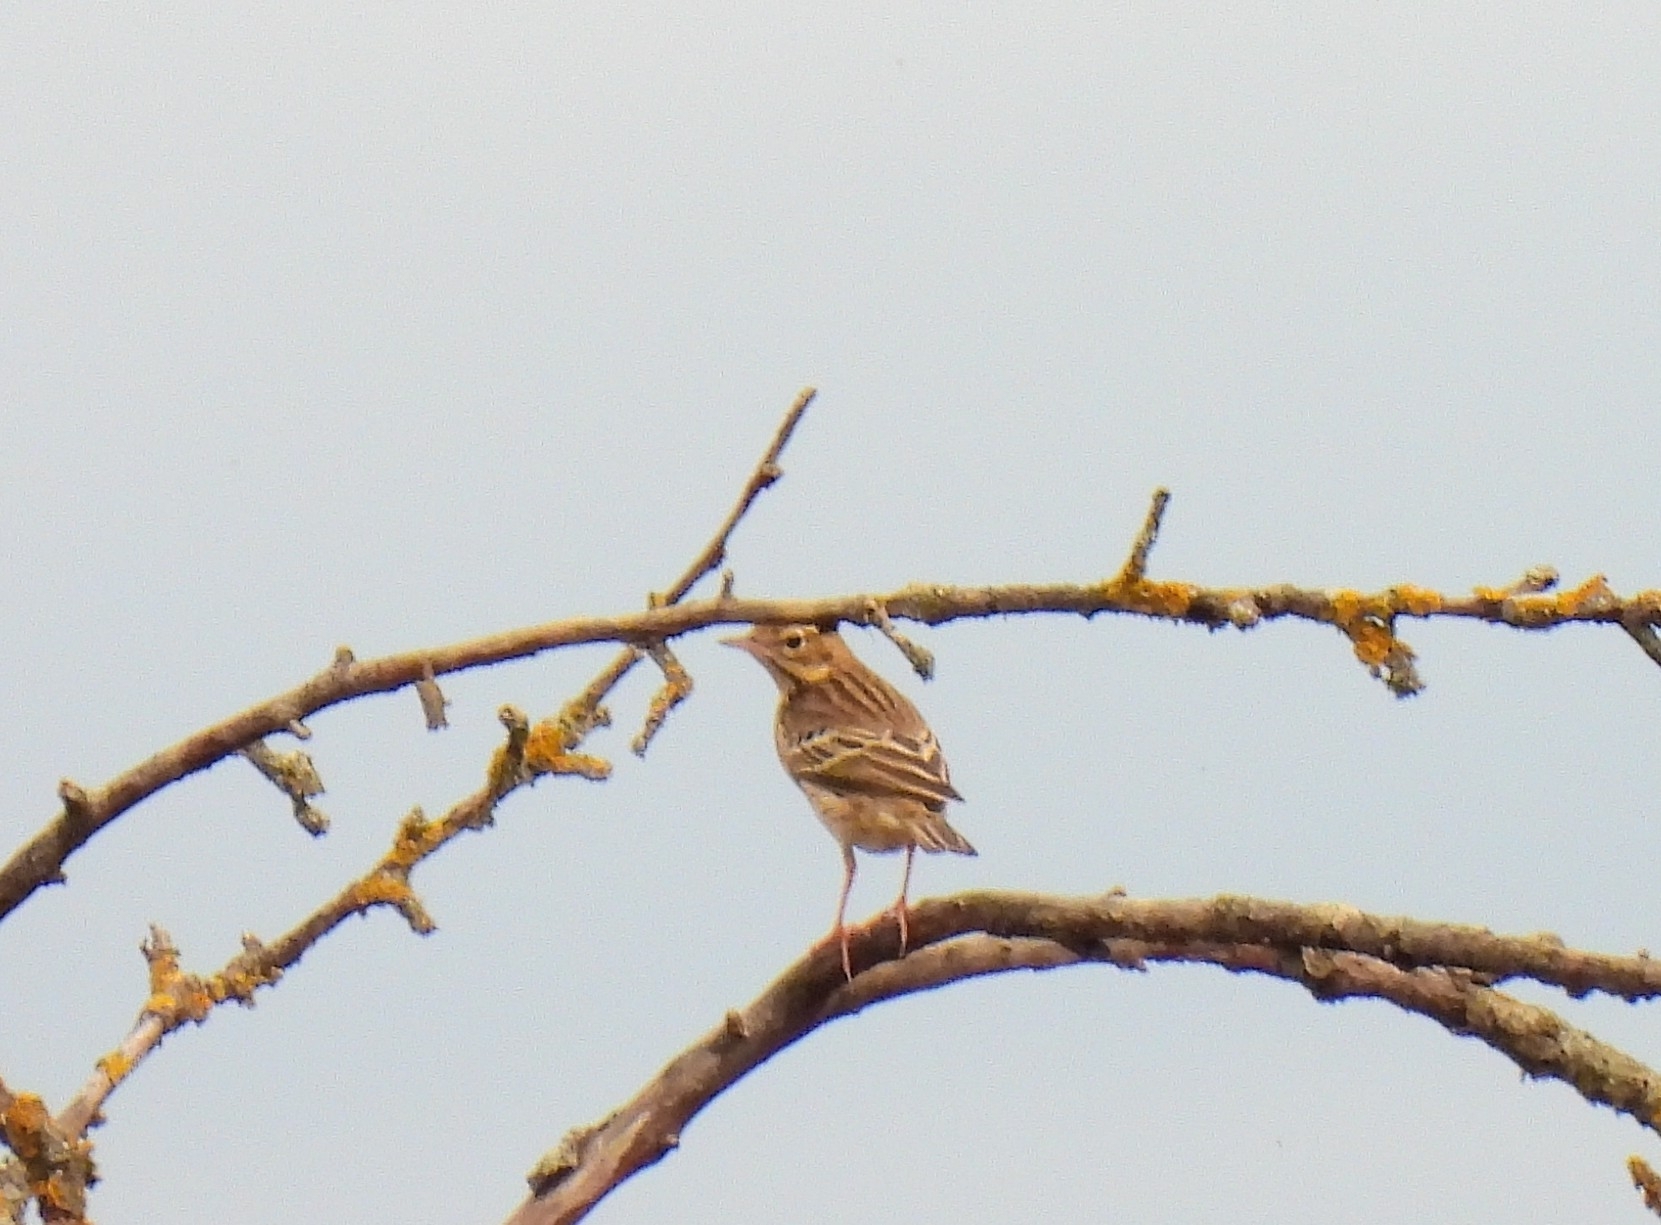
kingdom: Animalia
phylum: Chordata
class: Aves
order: Passeriformes
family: Motacillidae
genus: Anthus
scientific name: Anthus trivialis
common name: Tree pipit
